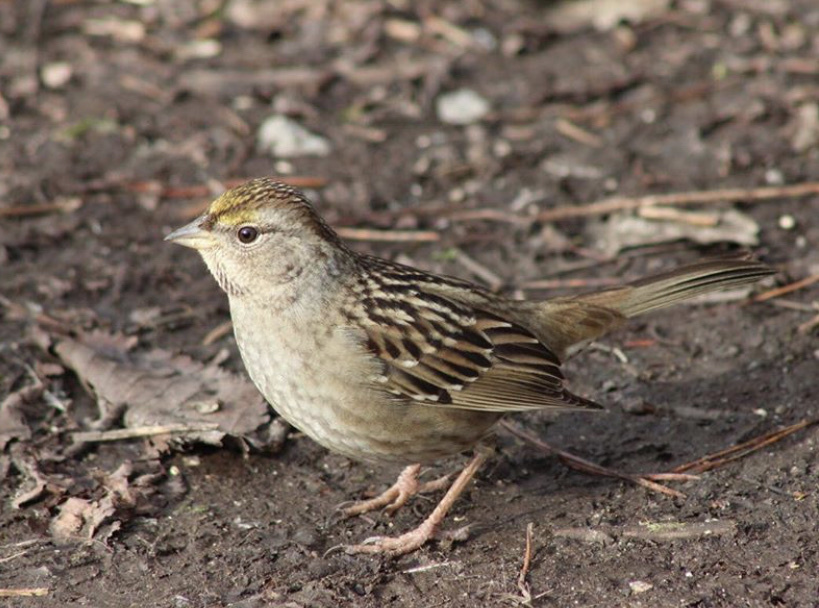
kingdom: Animalia
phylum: Chordata
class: Aves
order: Passeriformes
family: Passerellidae
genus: Zonotrichia
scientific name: Zonotrichia atricapilla
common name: Golden-crowned sparrow
